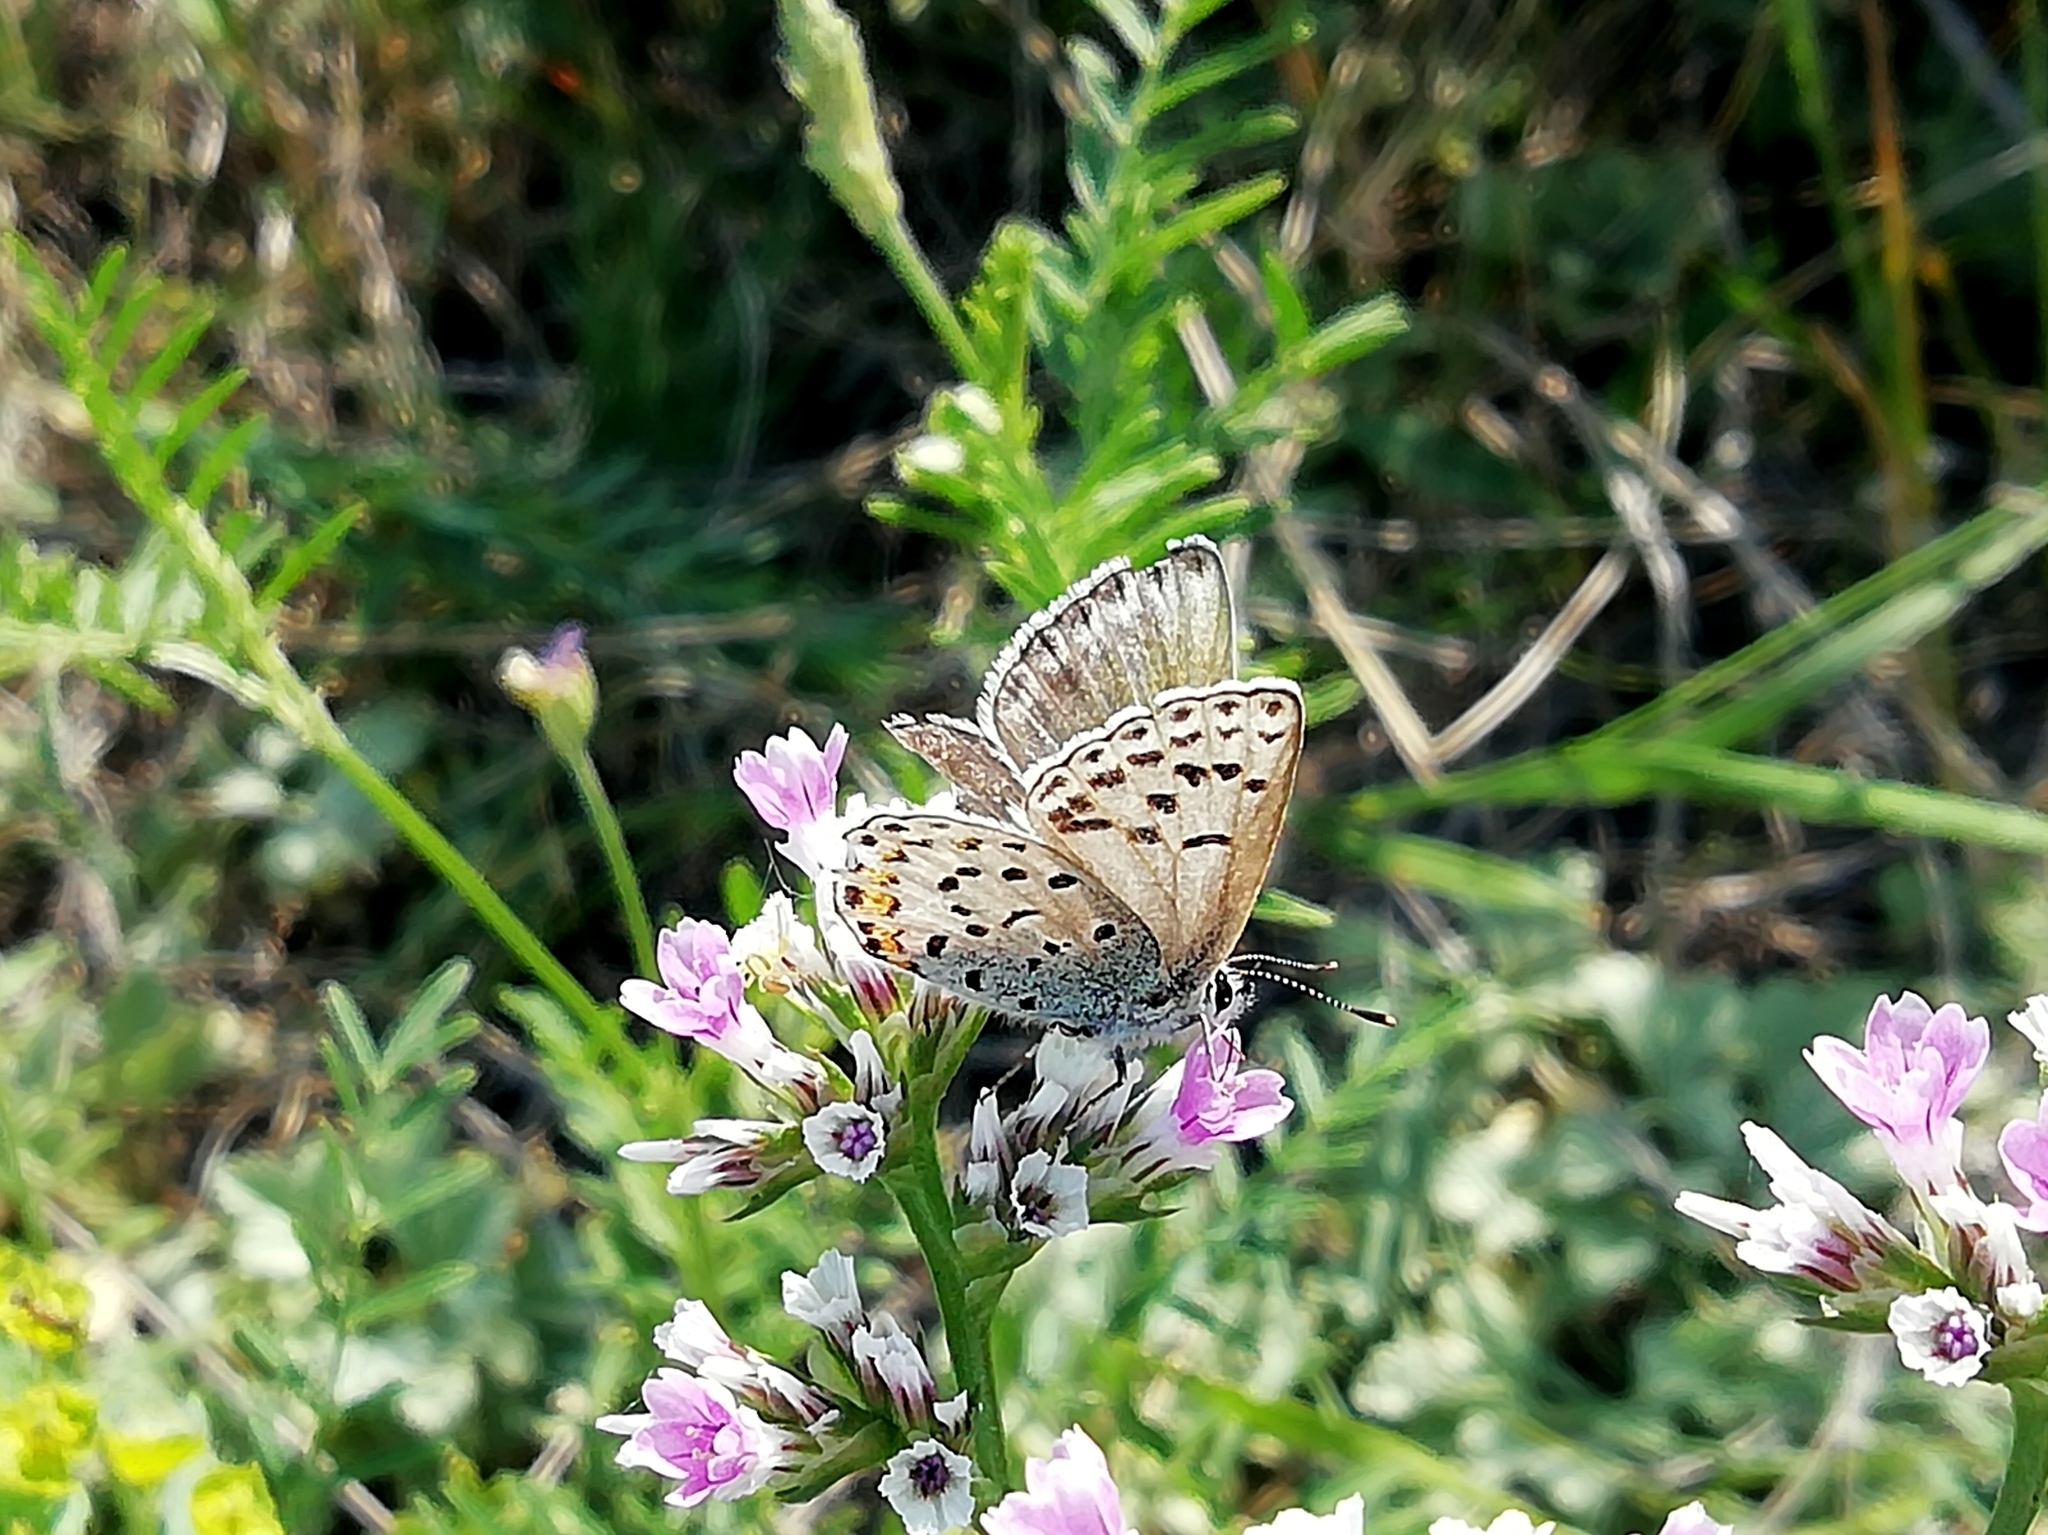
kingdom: Animalia
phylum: Arthropoda
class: Insecta
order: Lepidoptera
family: Lycaenidae
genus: Glabroculus
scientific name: Glabroculus cyane
